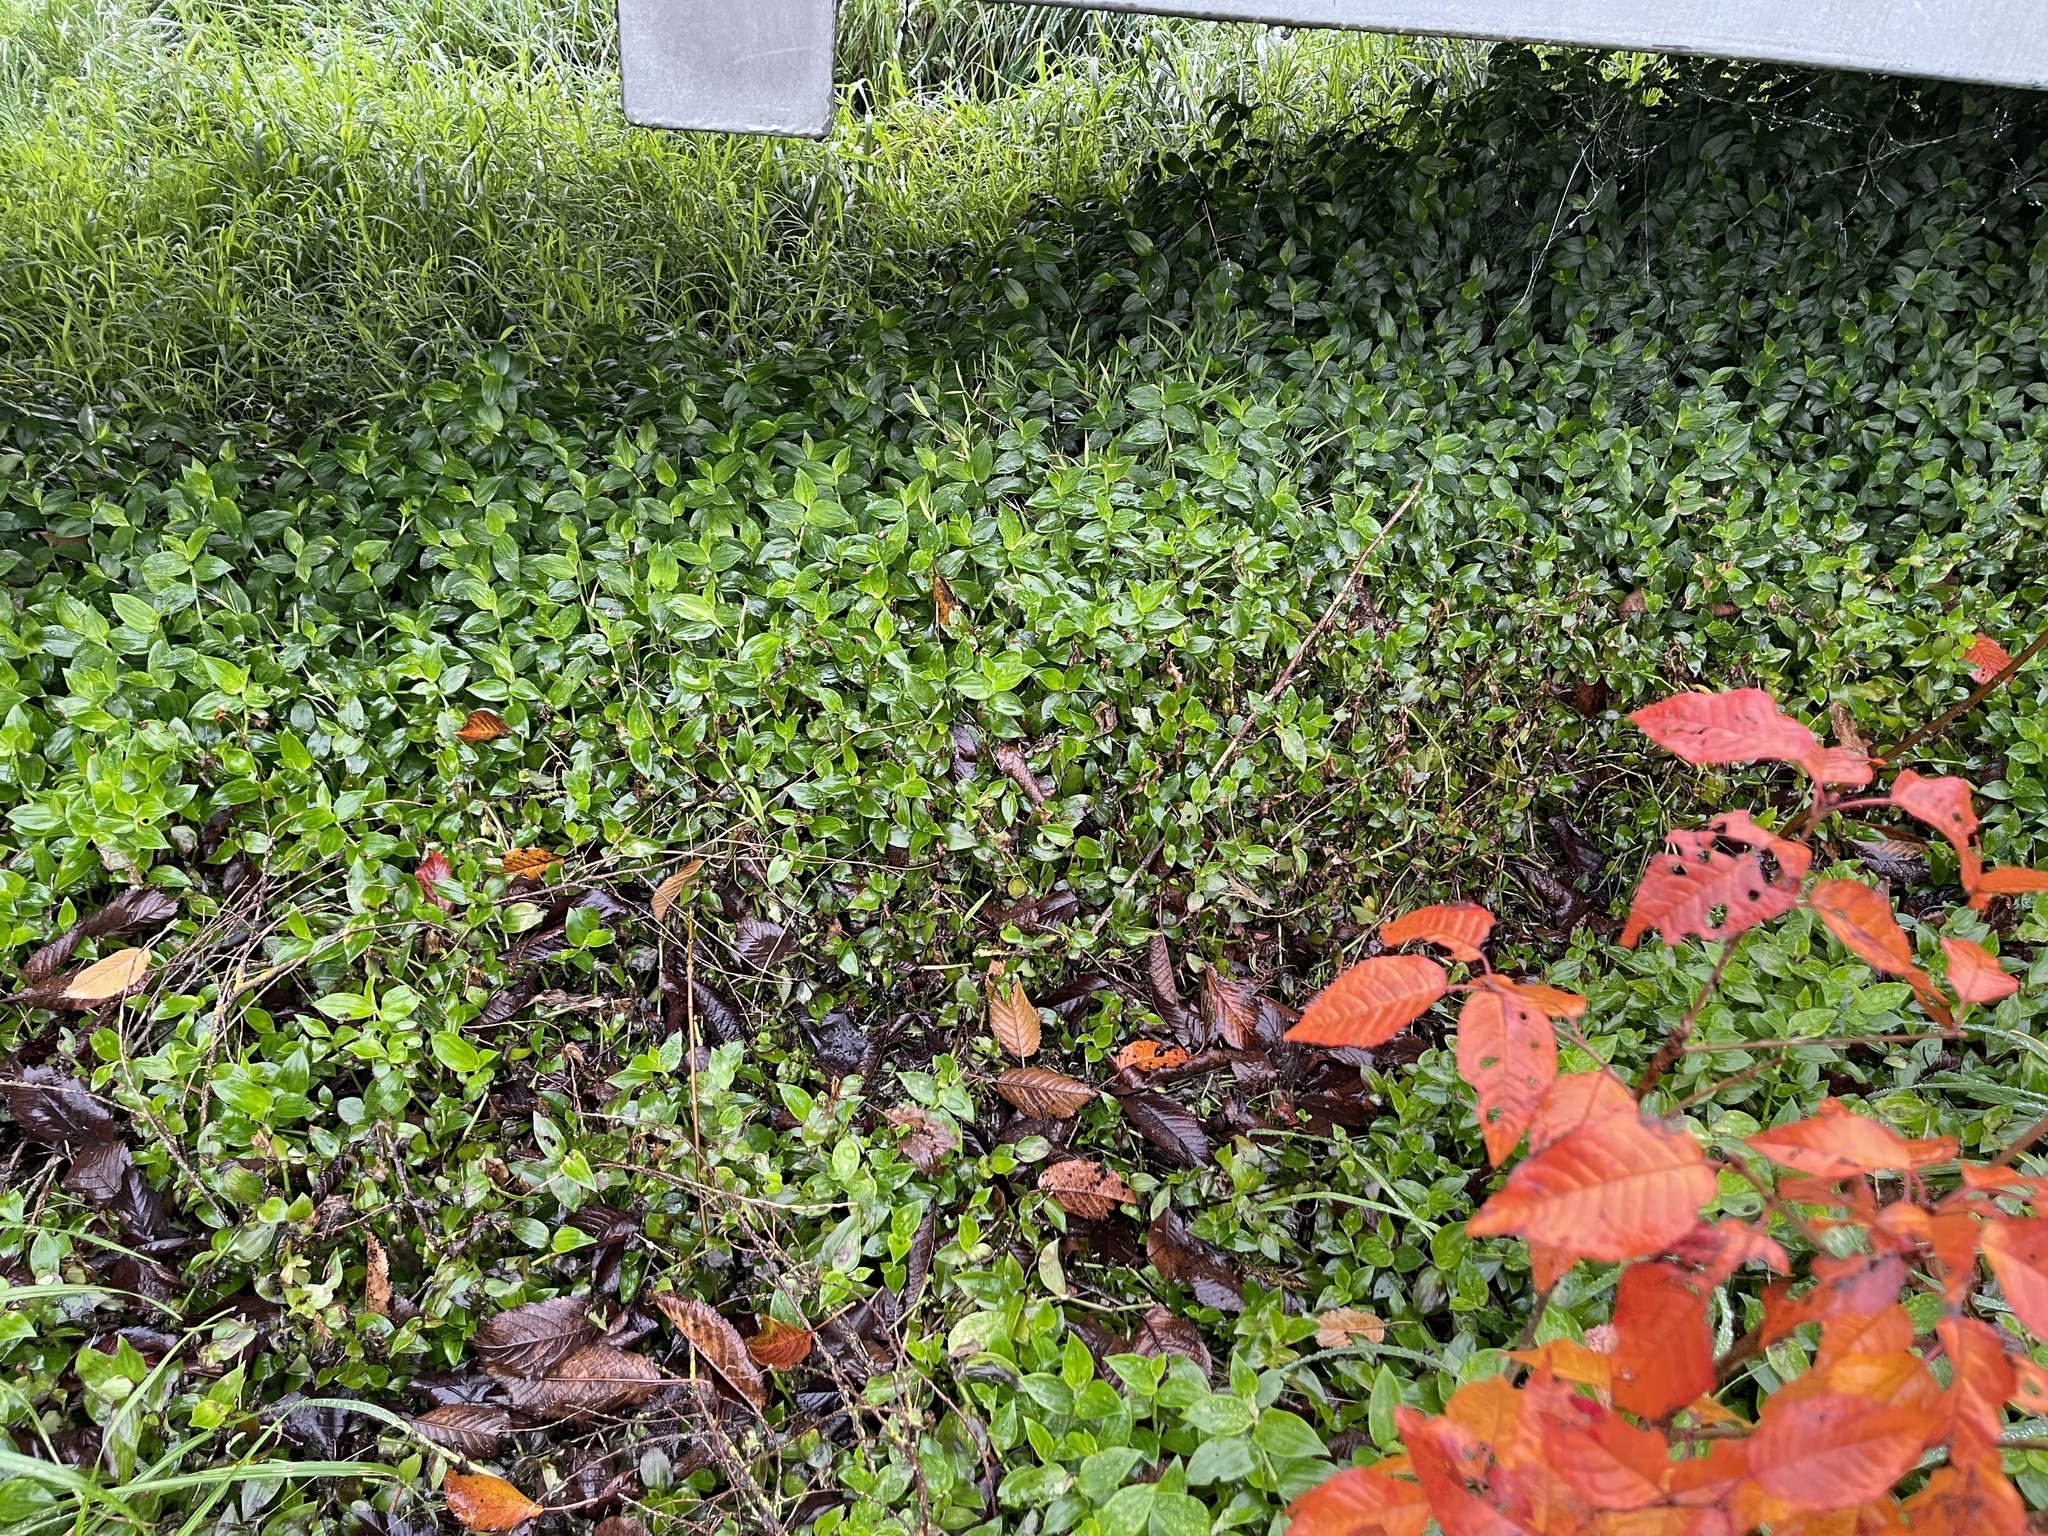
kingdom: Plantae
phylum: Tracheophyta
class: Liliopsida
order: Commelinales
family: Commelinaceae
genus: Tradescantia
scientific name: Tradescantia fluminensis
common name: Wandering-jew
